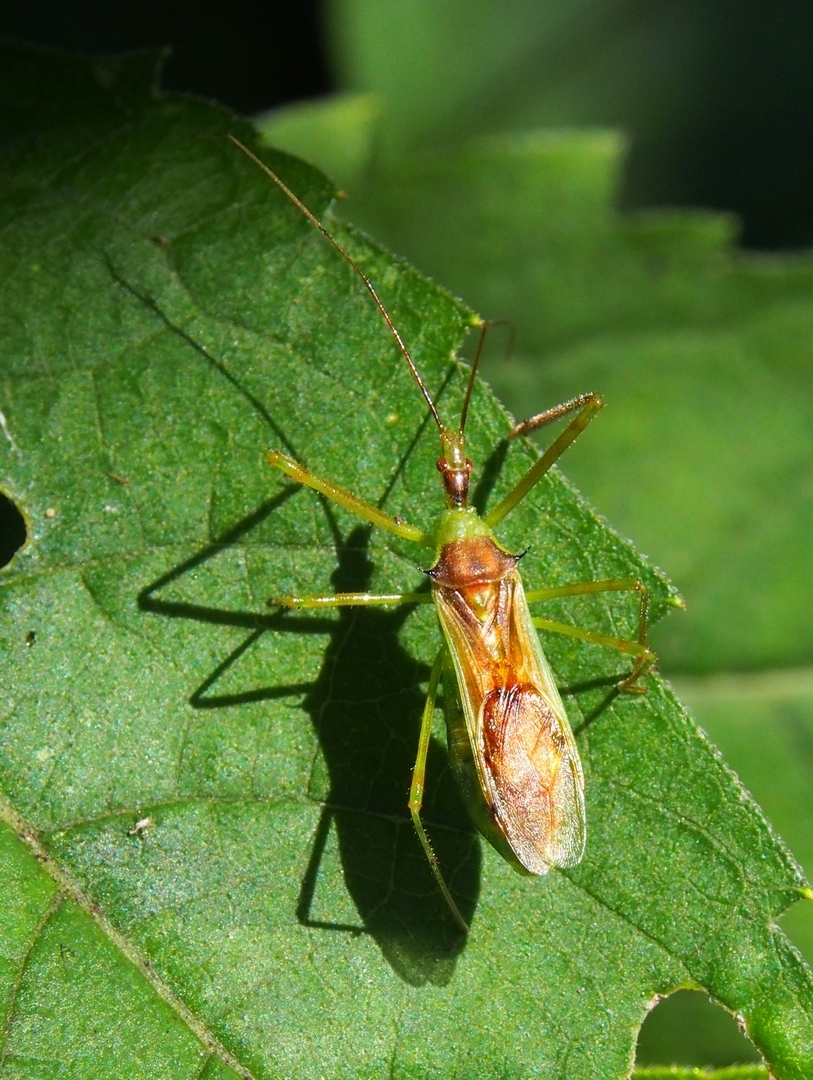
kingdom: Animalia
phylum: Arthropoda
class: Insecta
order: Hemiptera
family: Reduviidae
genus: Zelus
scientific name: Zelus luridus
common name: Pale green assassin bug
